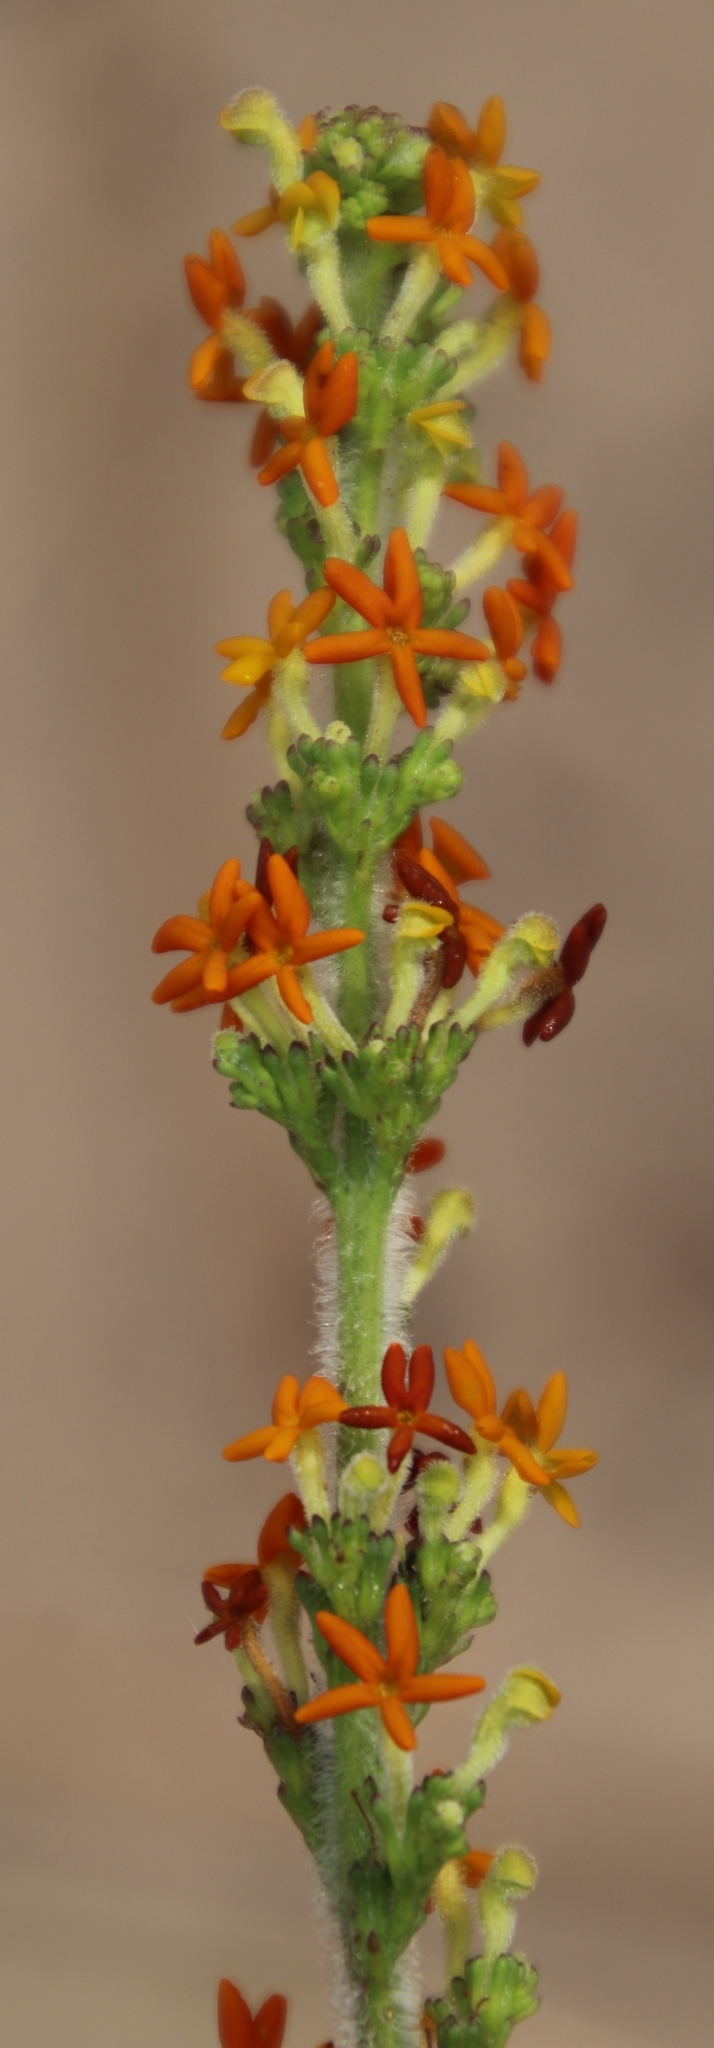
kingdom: Plantae
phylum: Tracheophyta
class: Magnoliopsida
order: Lamiales
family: Scrophulariaceae
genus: Manulea
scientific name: Manulea rubra
